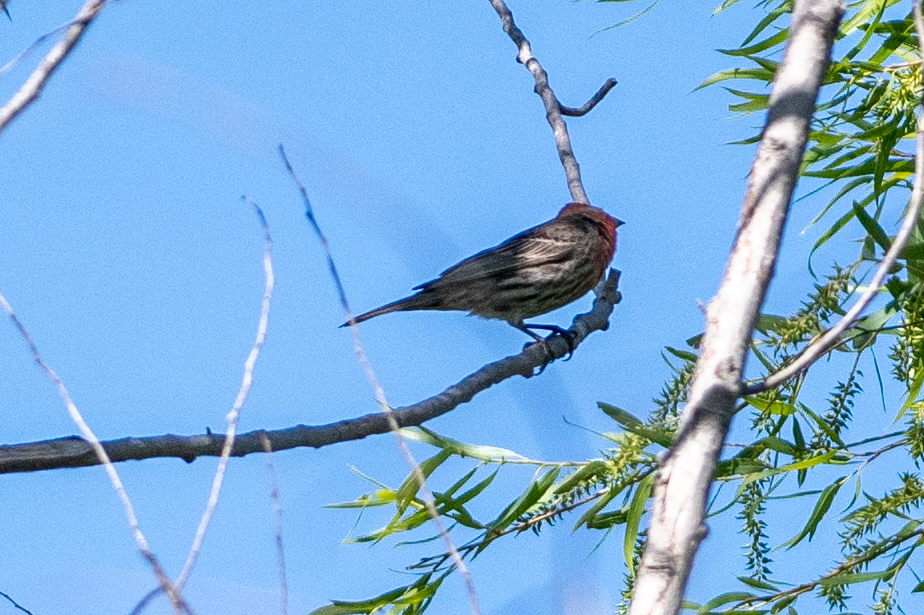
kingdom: Animalia
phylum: Chordata
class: Aves
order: Passeriformes
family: Fringillidae
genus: Haemorhous
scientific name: Haemorhous mexicanus
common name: House finch
